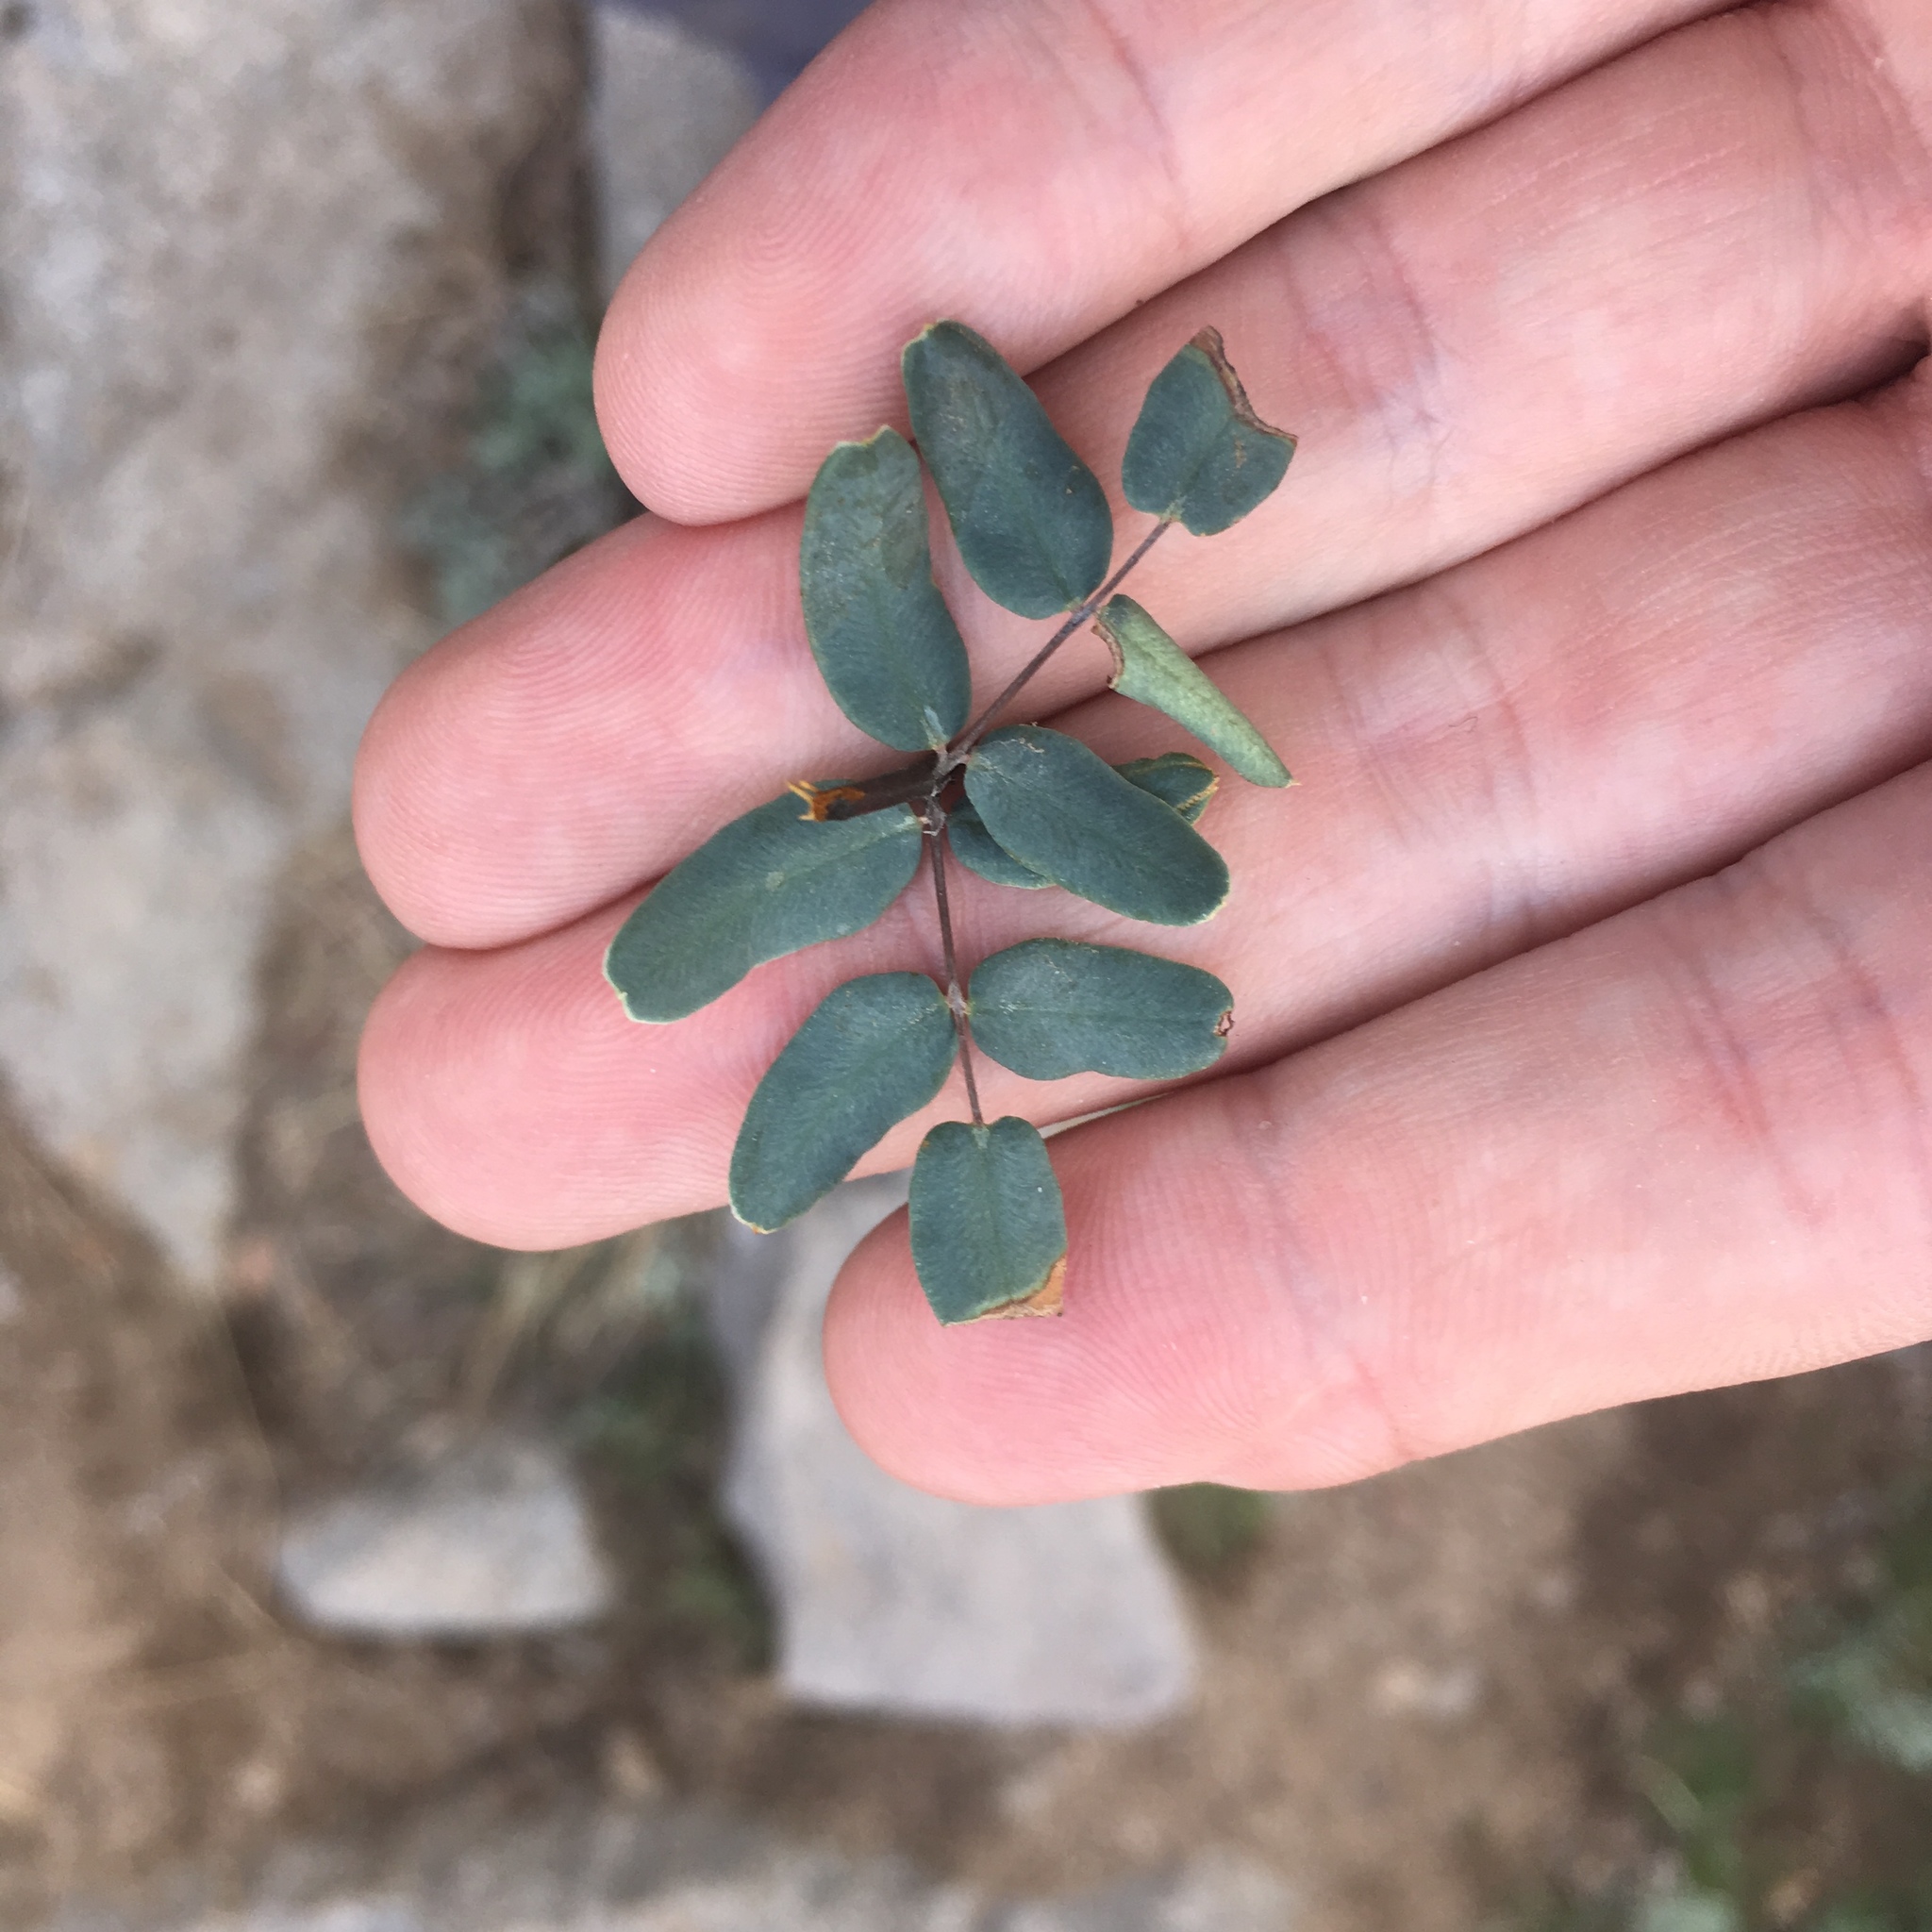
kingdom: Plantae
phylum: Tracheophyta
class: Polypodiopsida
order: Polypodiales
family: Pteridaceae
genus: Pellaea
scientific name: Pellaea wrightiana
